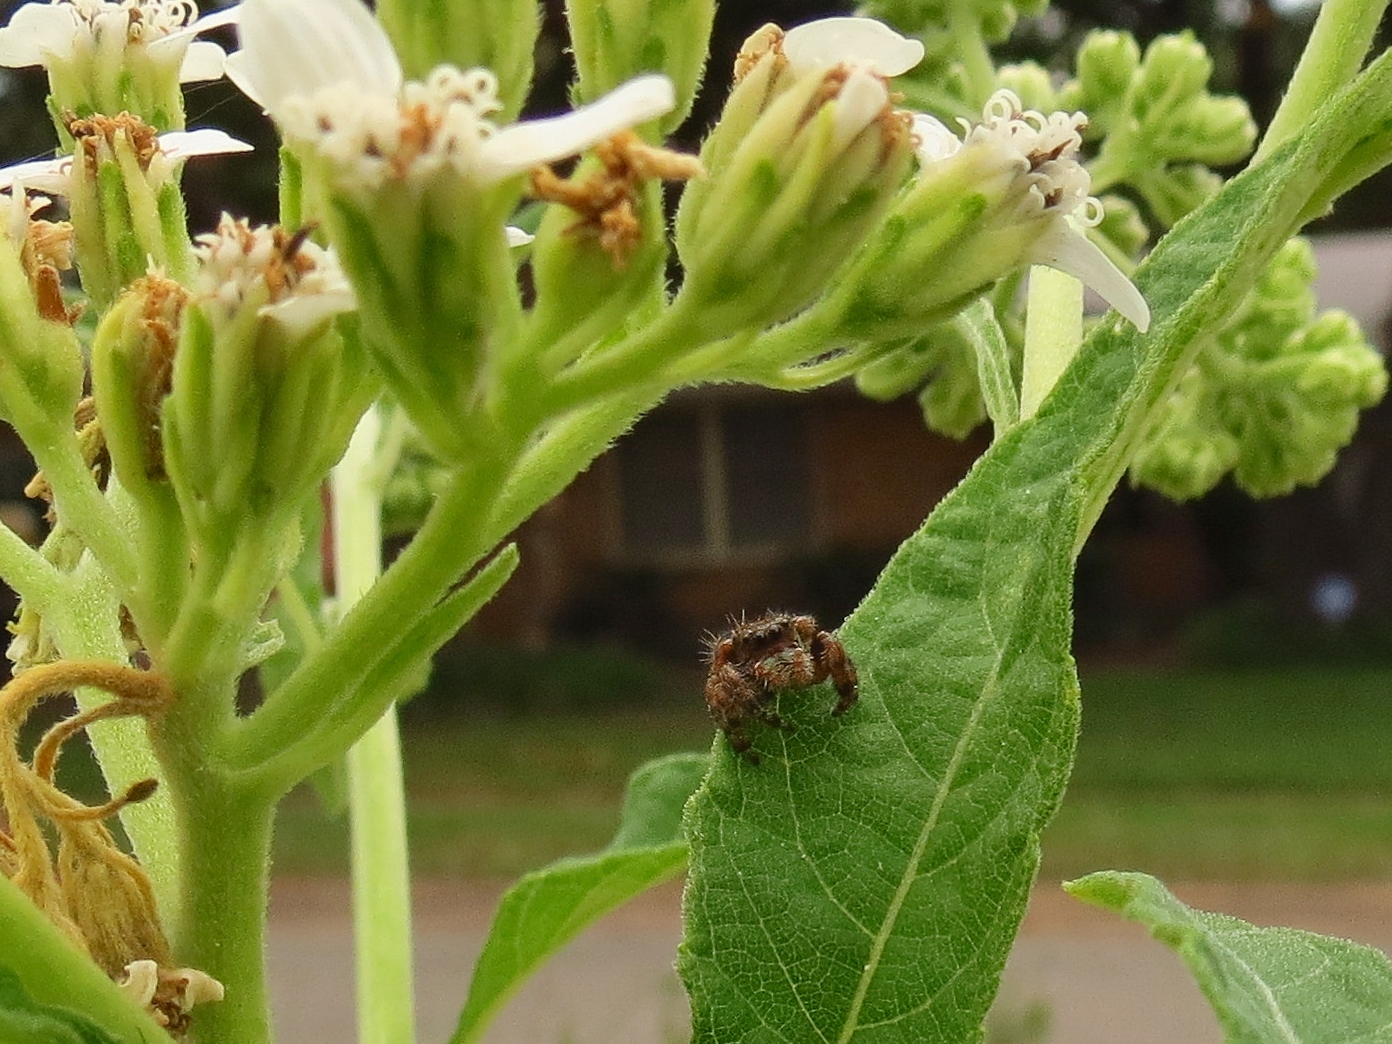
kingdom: Animalia
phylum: Arthropoda
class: Arachnida
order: Araneae
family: Salticidae
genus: Phidippus
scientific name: Phidippus audax
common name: Bold jumper
